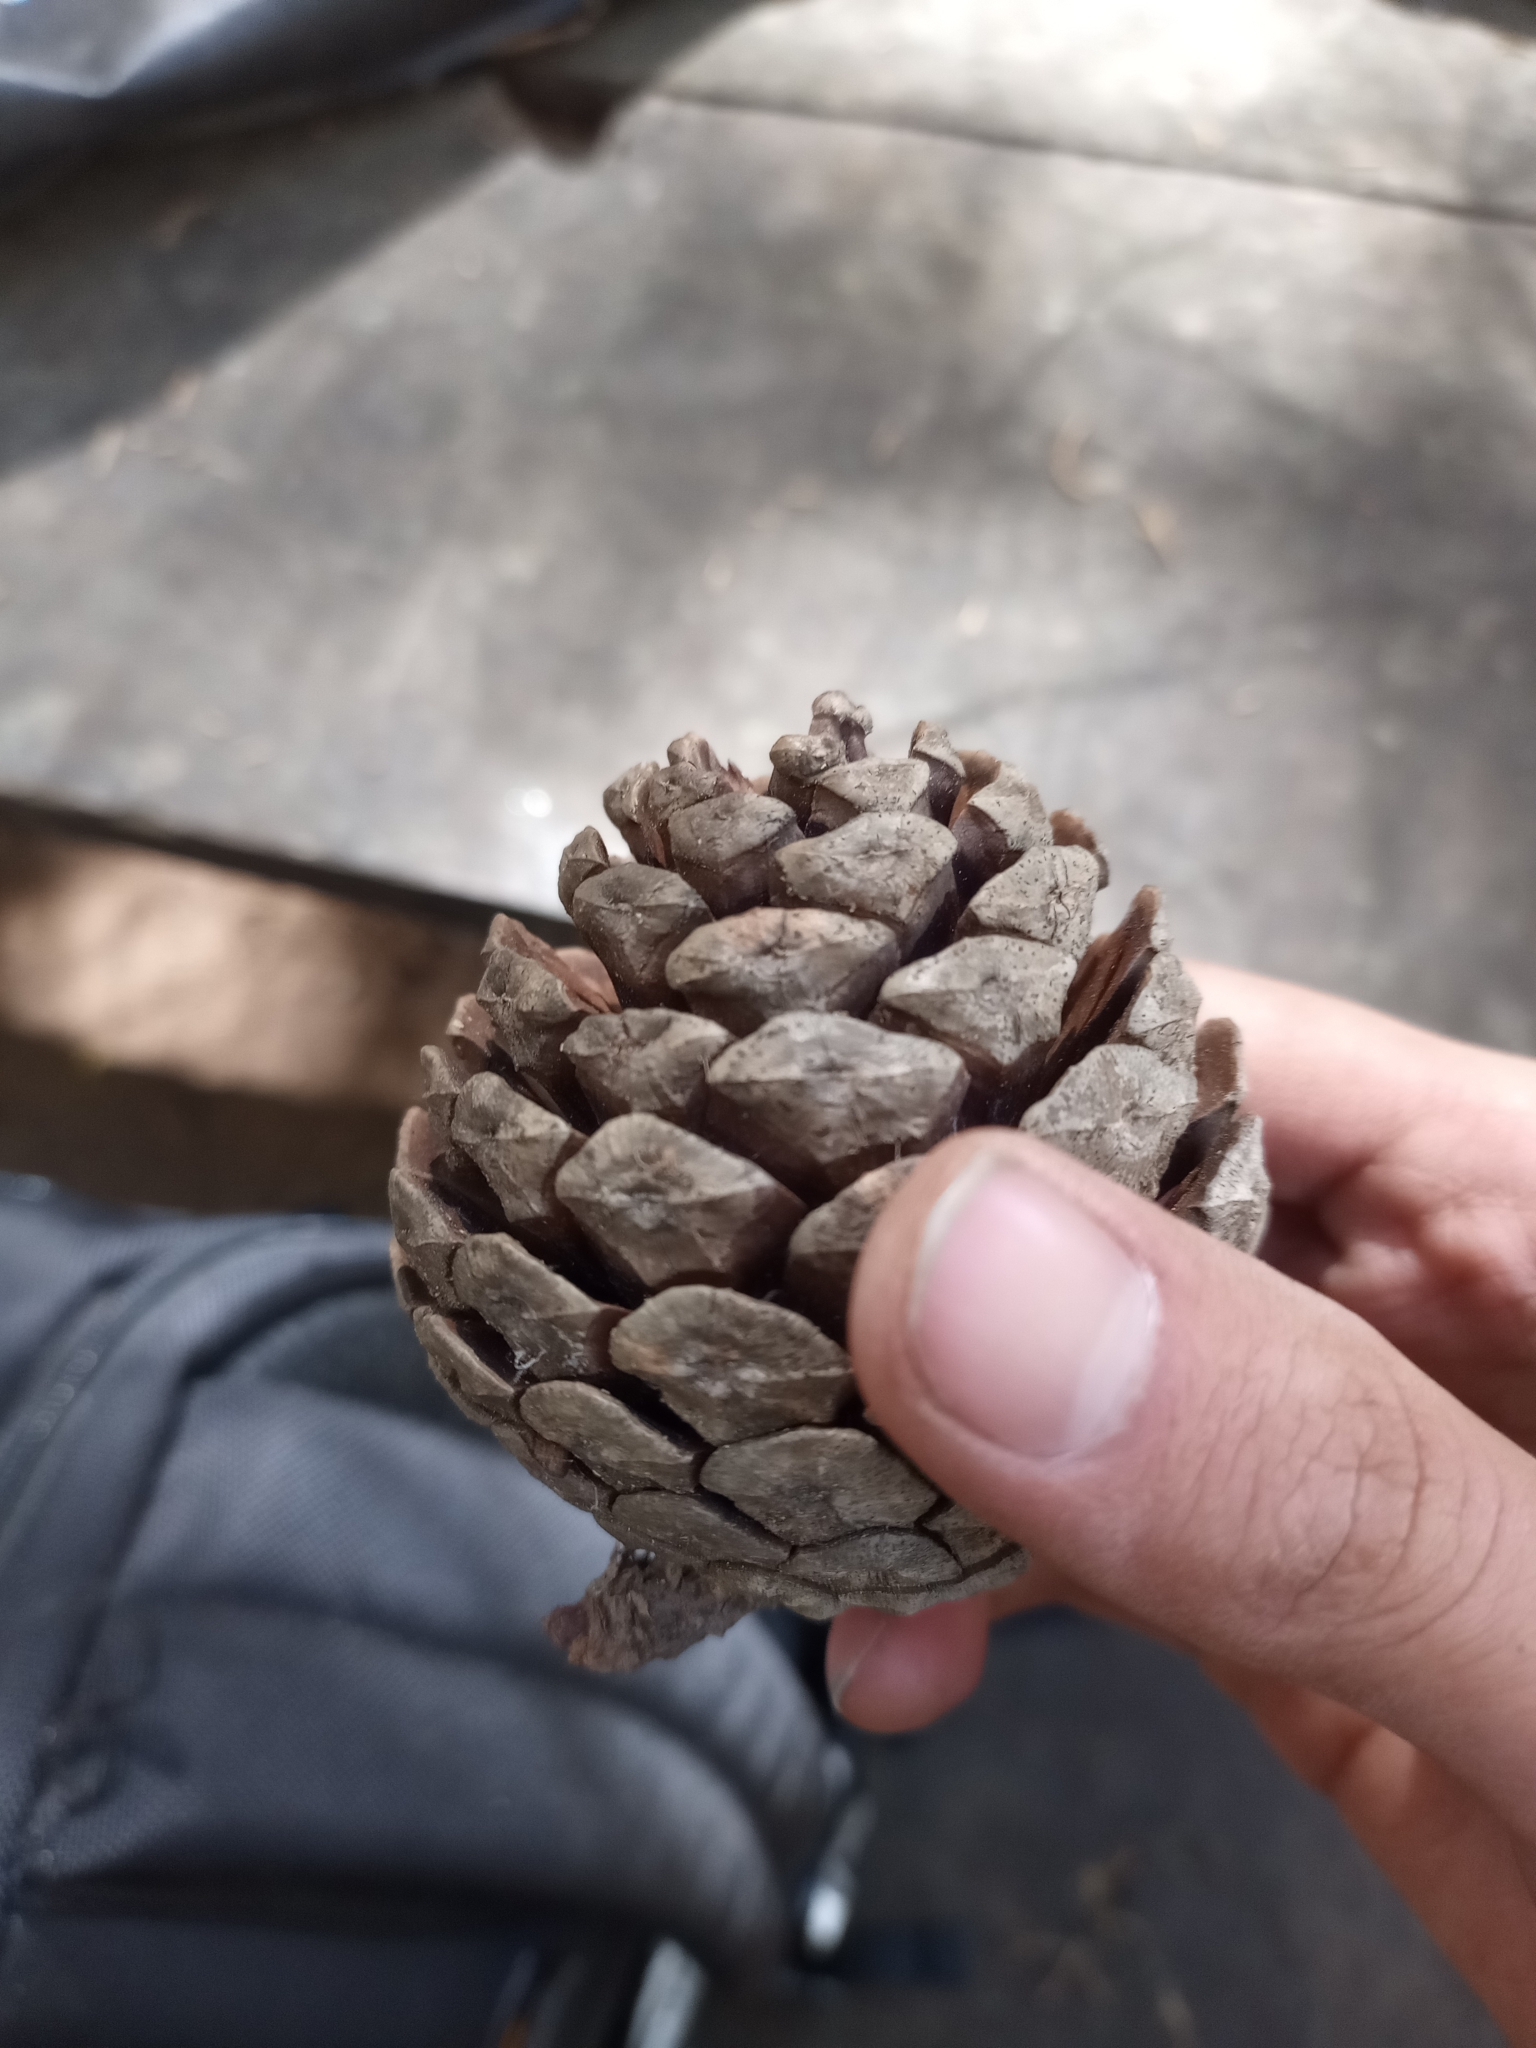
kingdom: Plantae
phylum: Tracheophyta
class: Pinopsida
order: Pinales
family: Pinaceae
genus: Pinus
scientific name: Pinus oocarpa
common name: Egg-cone pine
